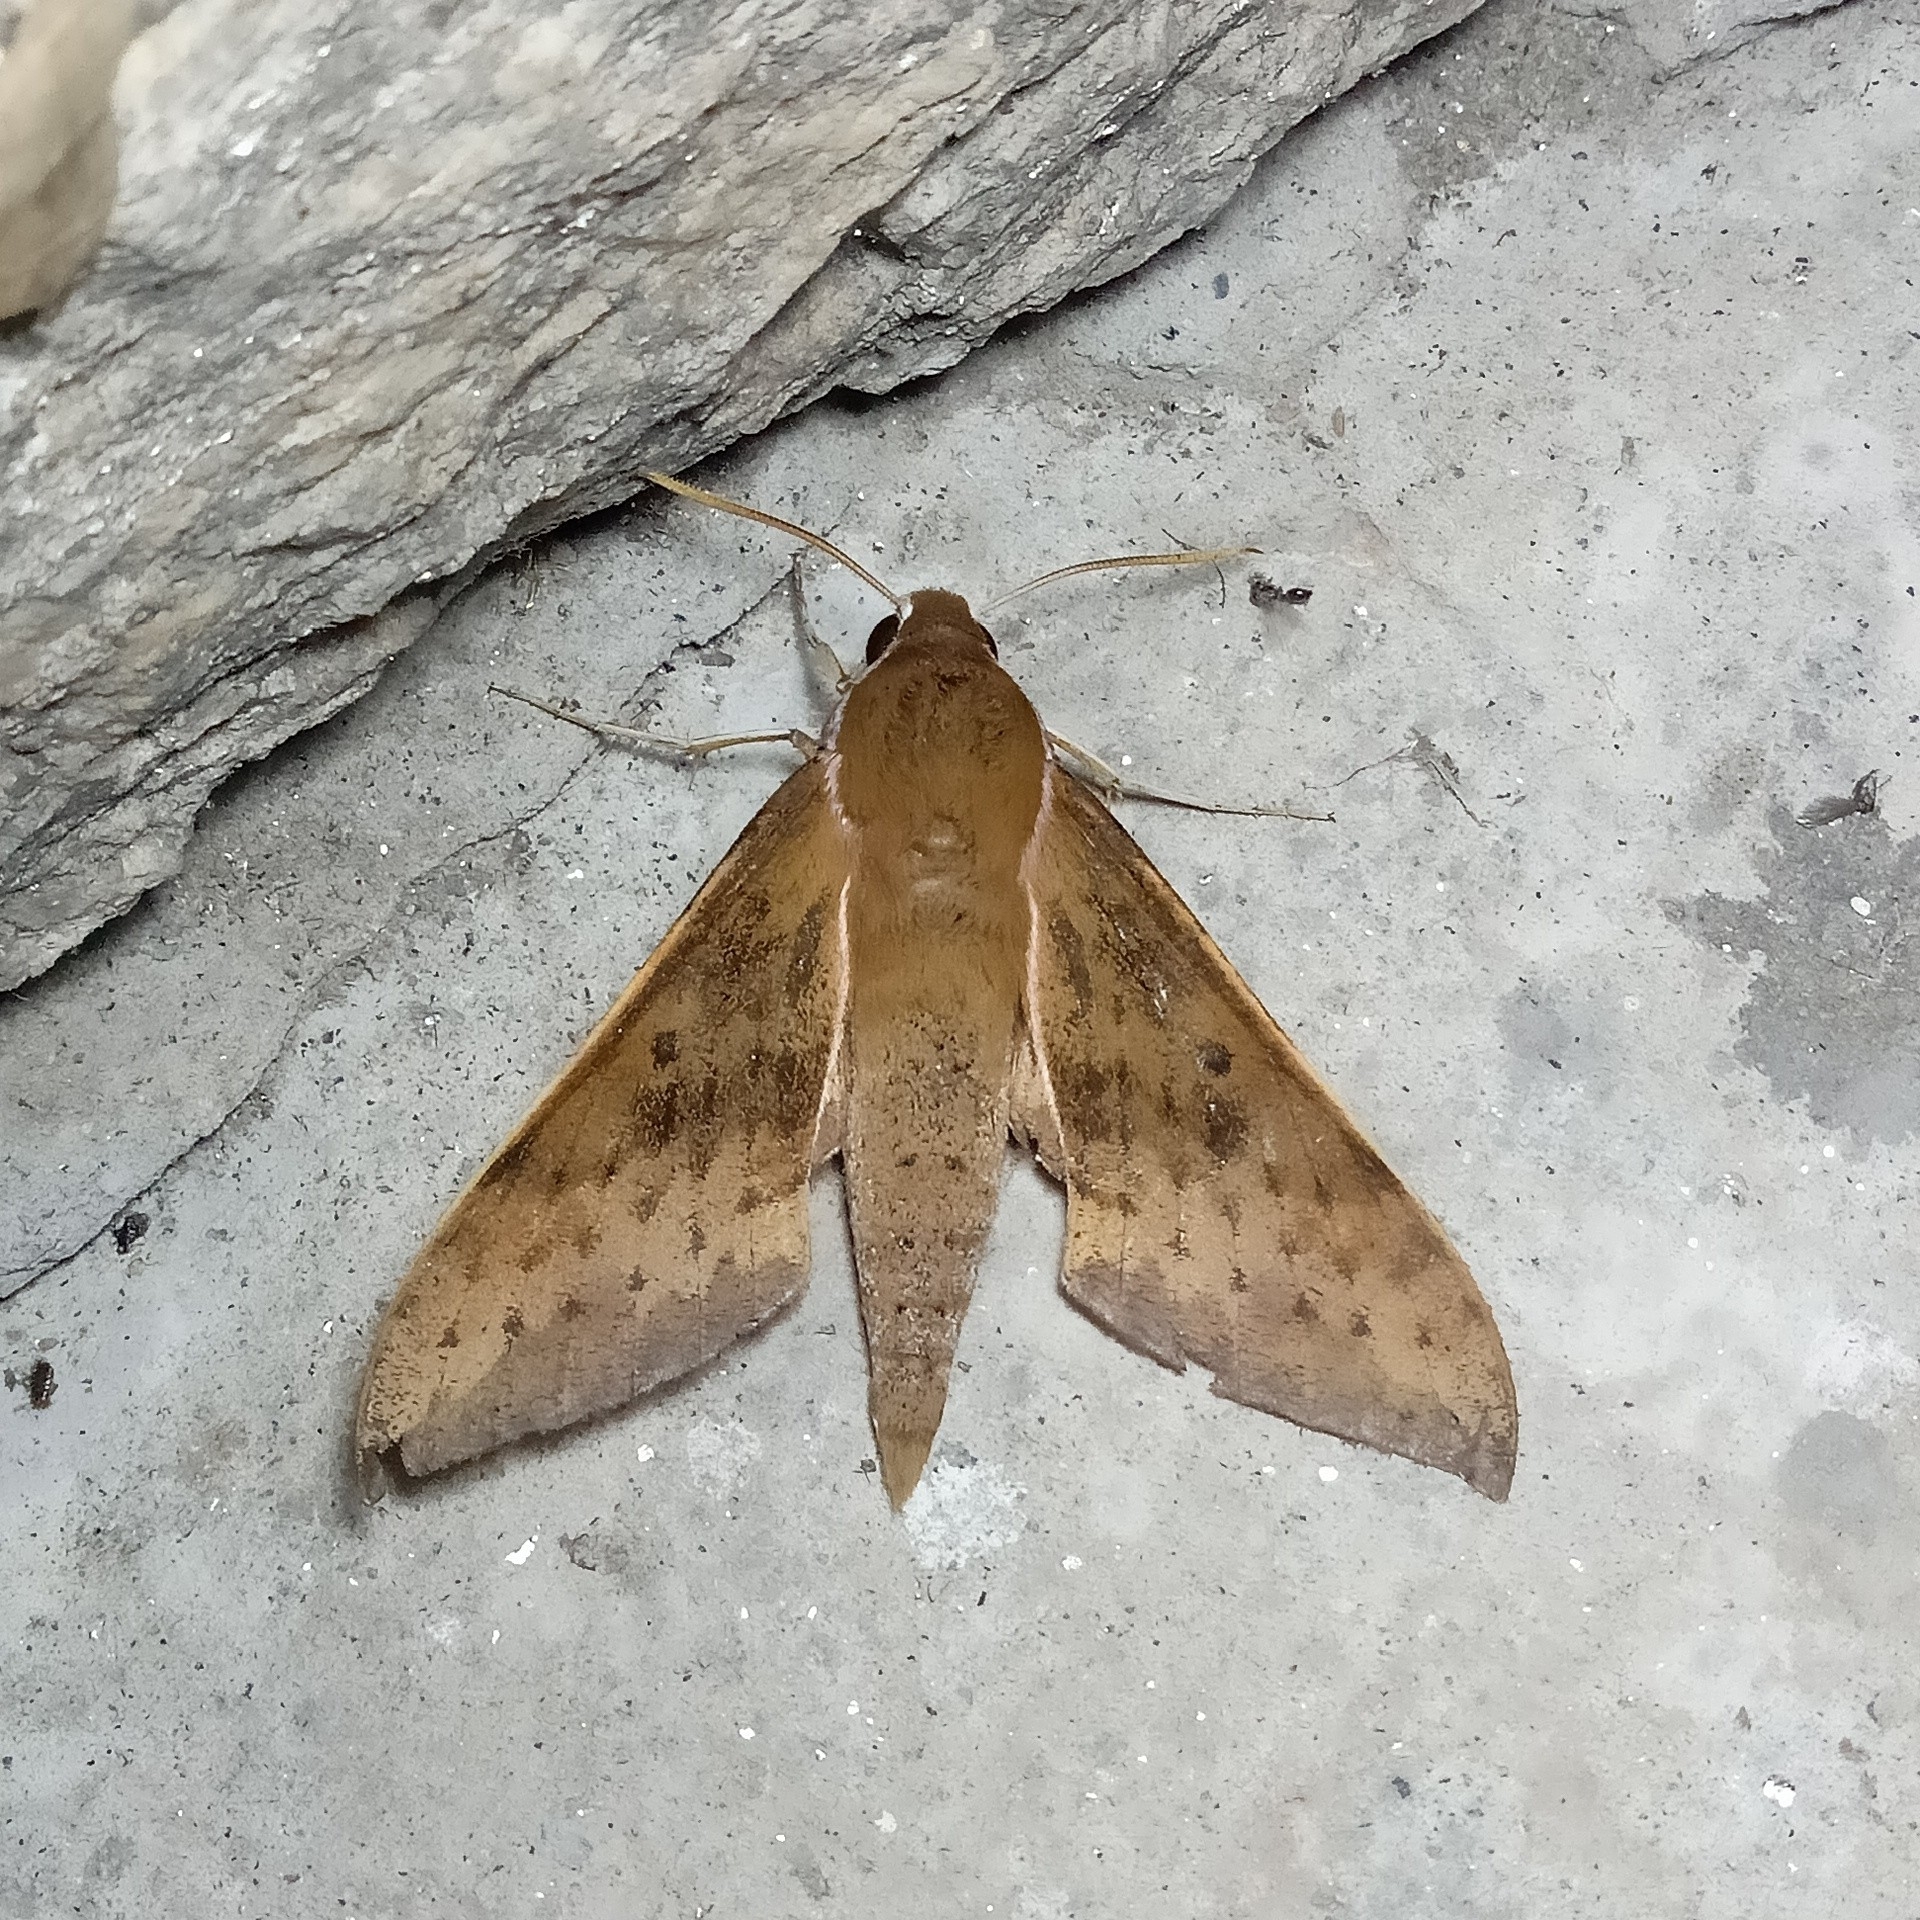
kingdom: Animalia
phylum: Arthropoda
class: Insecta
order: Lepidoptera
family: Sphingidae
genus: Rhagastis
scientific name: Rhagastis confusa
